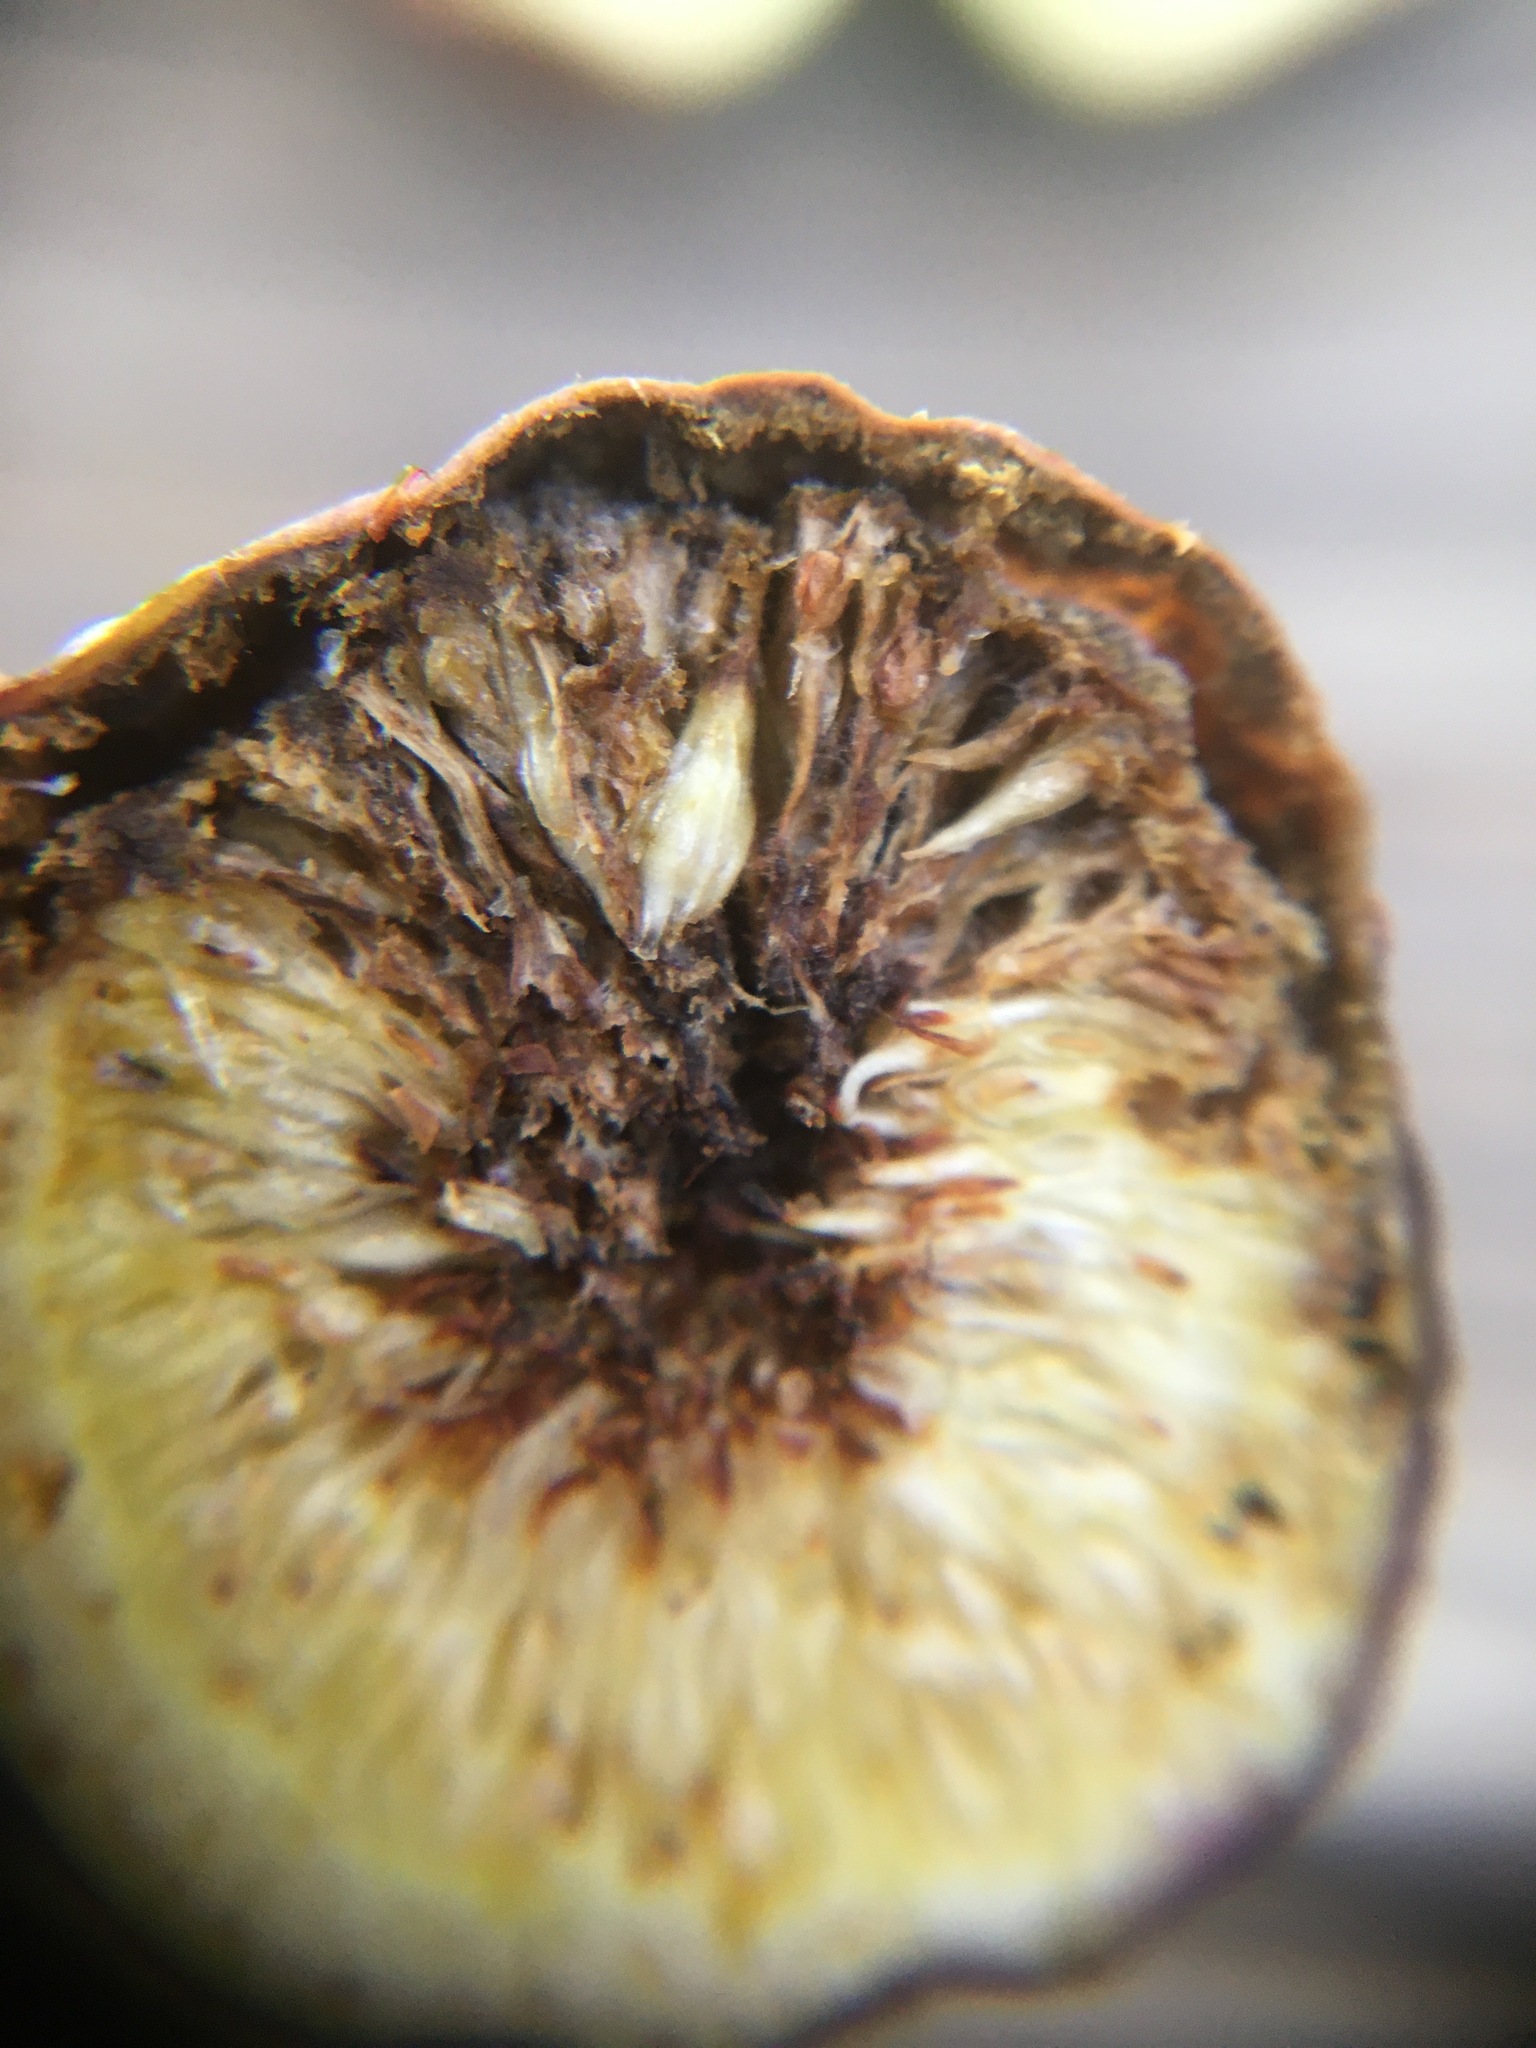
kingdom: Animalia
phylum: Arthropoda
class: Insecta
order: Diptera
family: Lonchaeidae
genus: Silba
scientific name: Silba adipata
